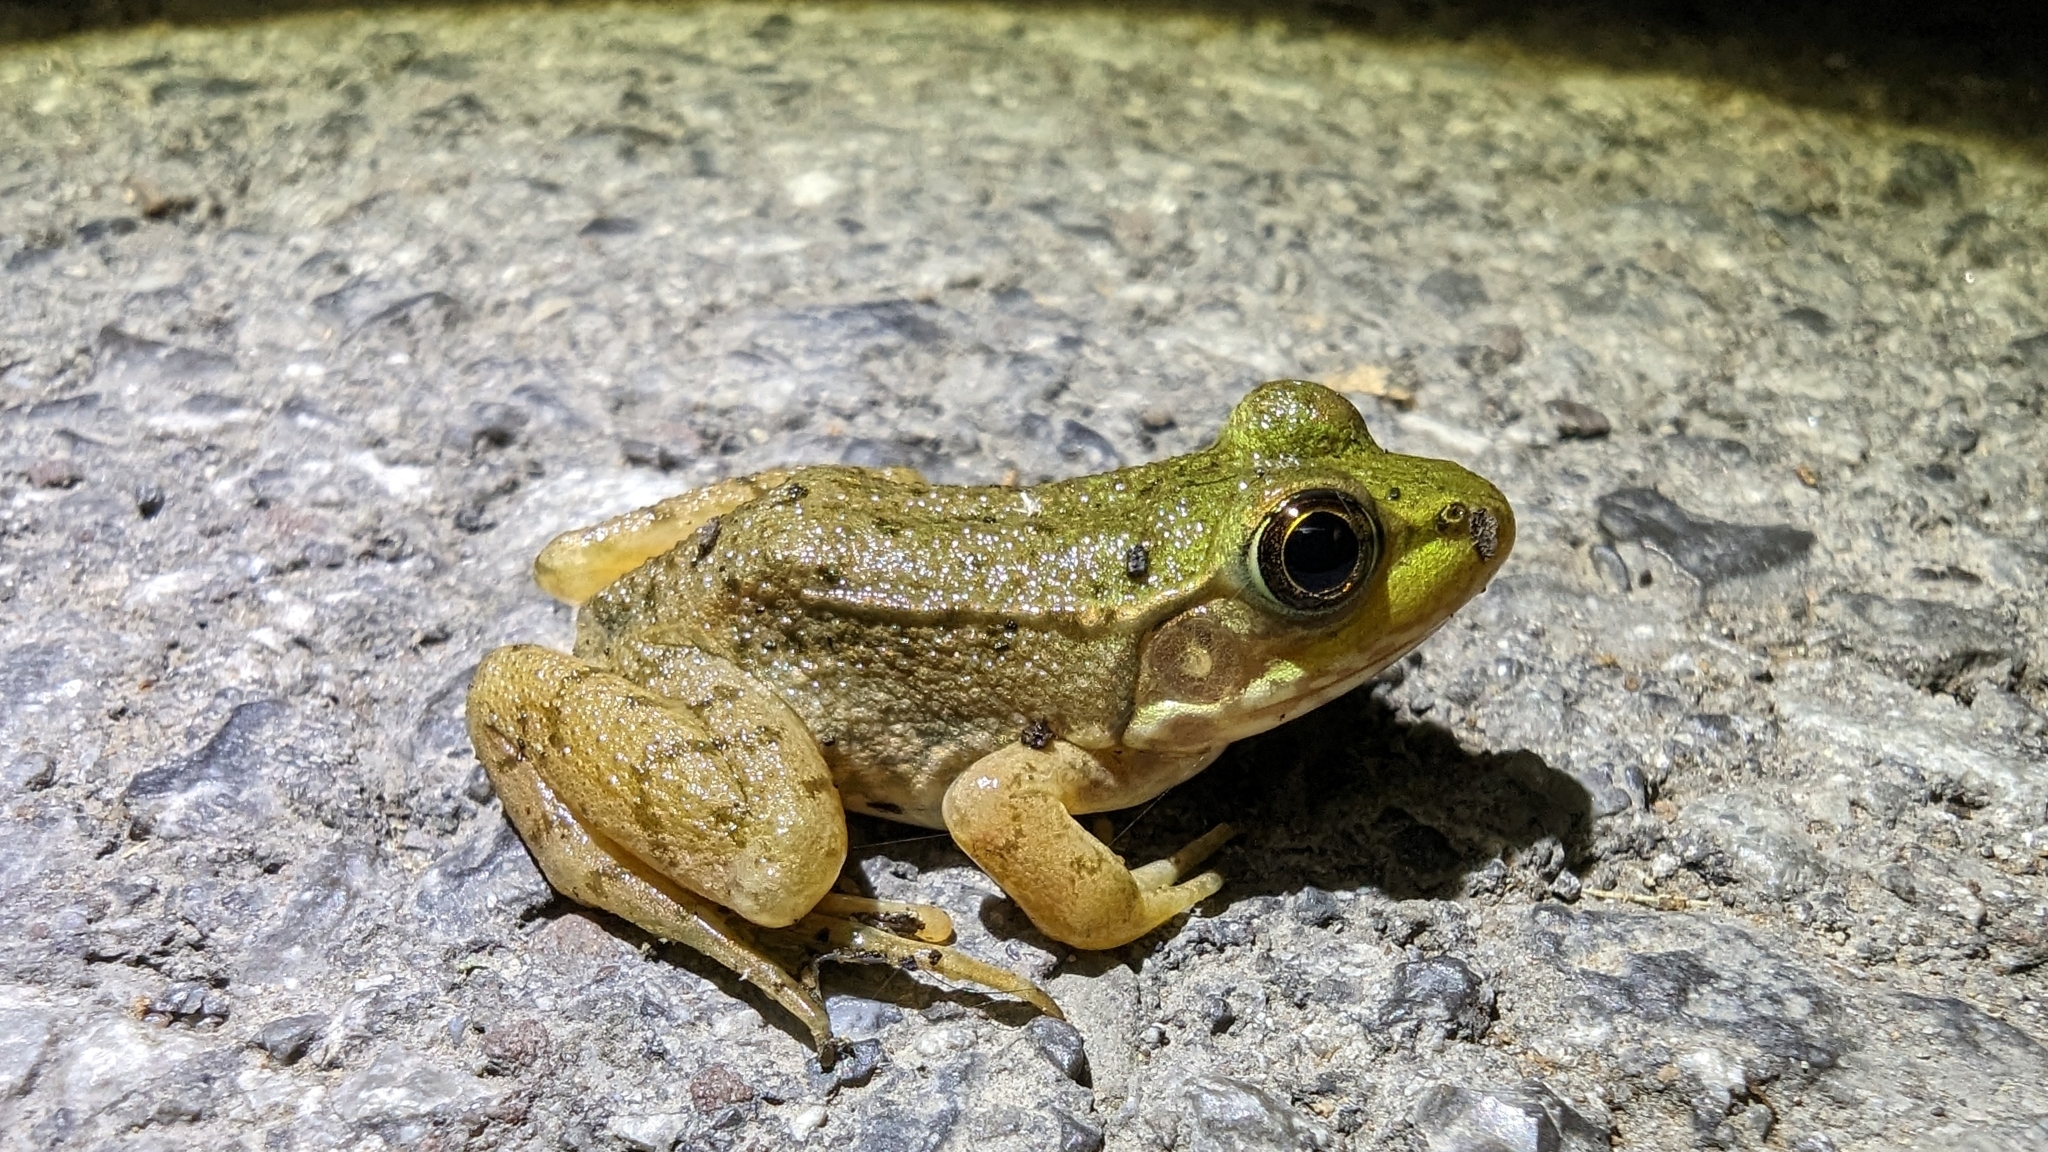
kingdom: Animalia
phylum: Chordata
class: Amphibia
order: Anura
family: Ranidae
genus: Lithobates
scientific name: Lithobates clamitans
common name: Green frog
